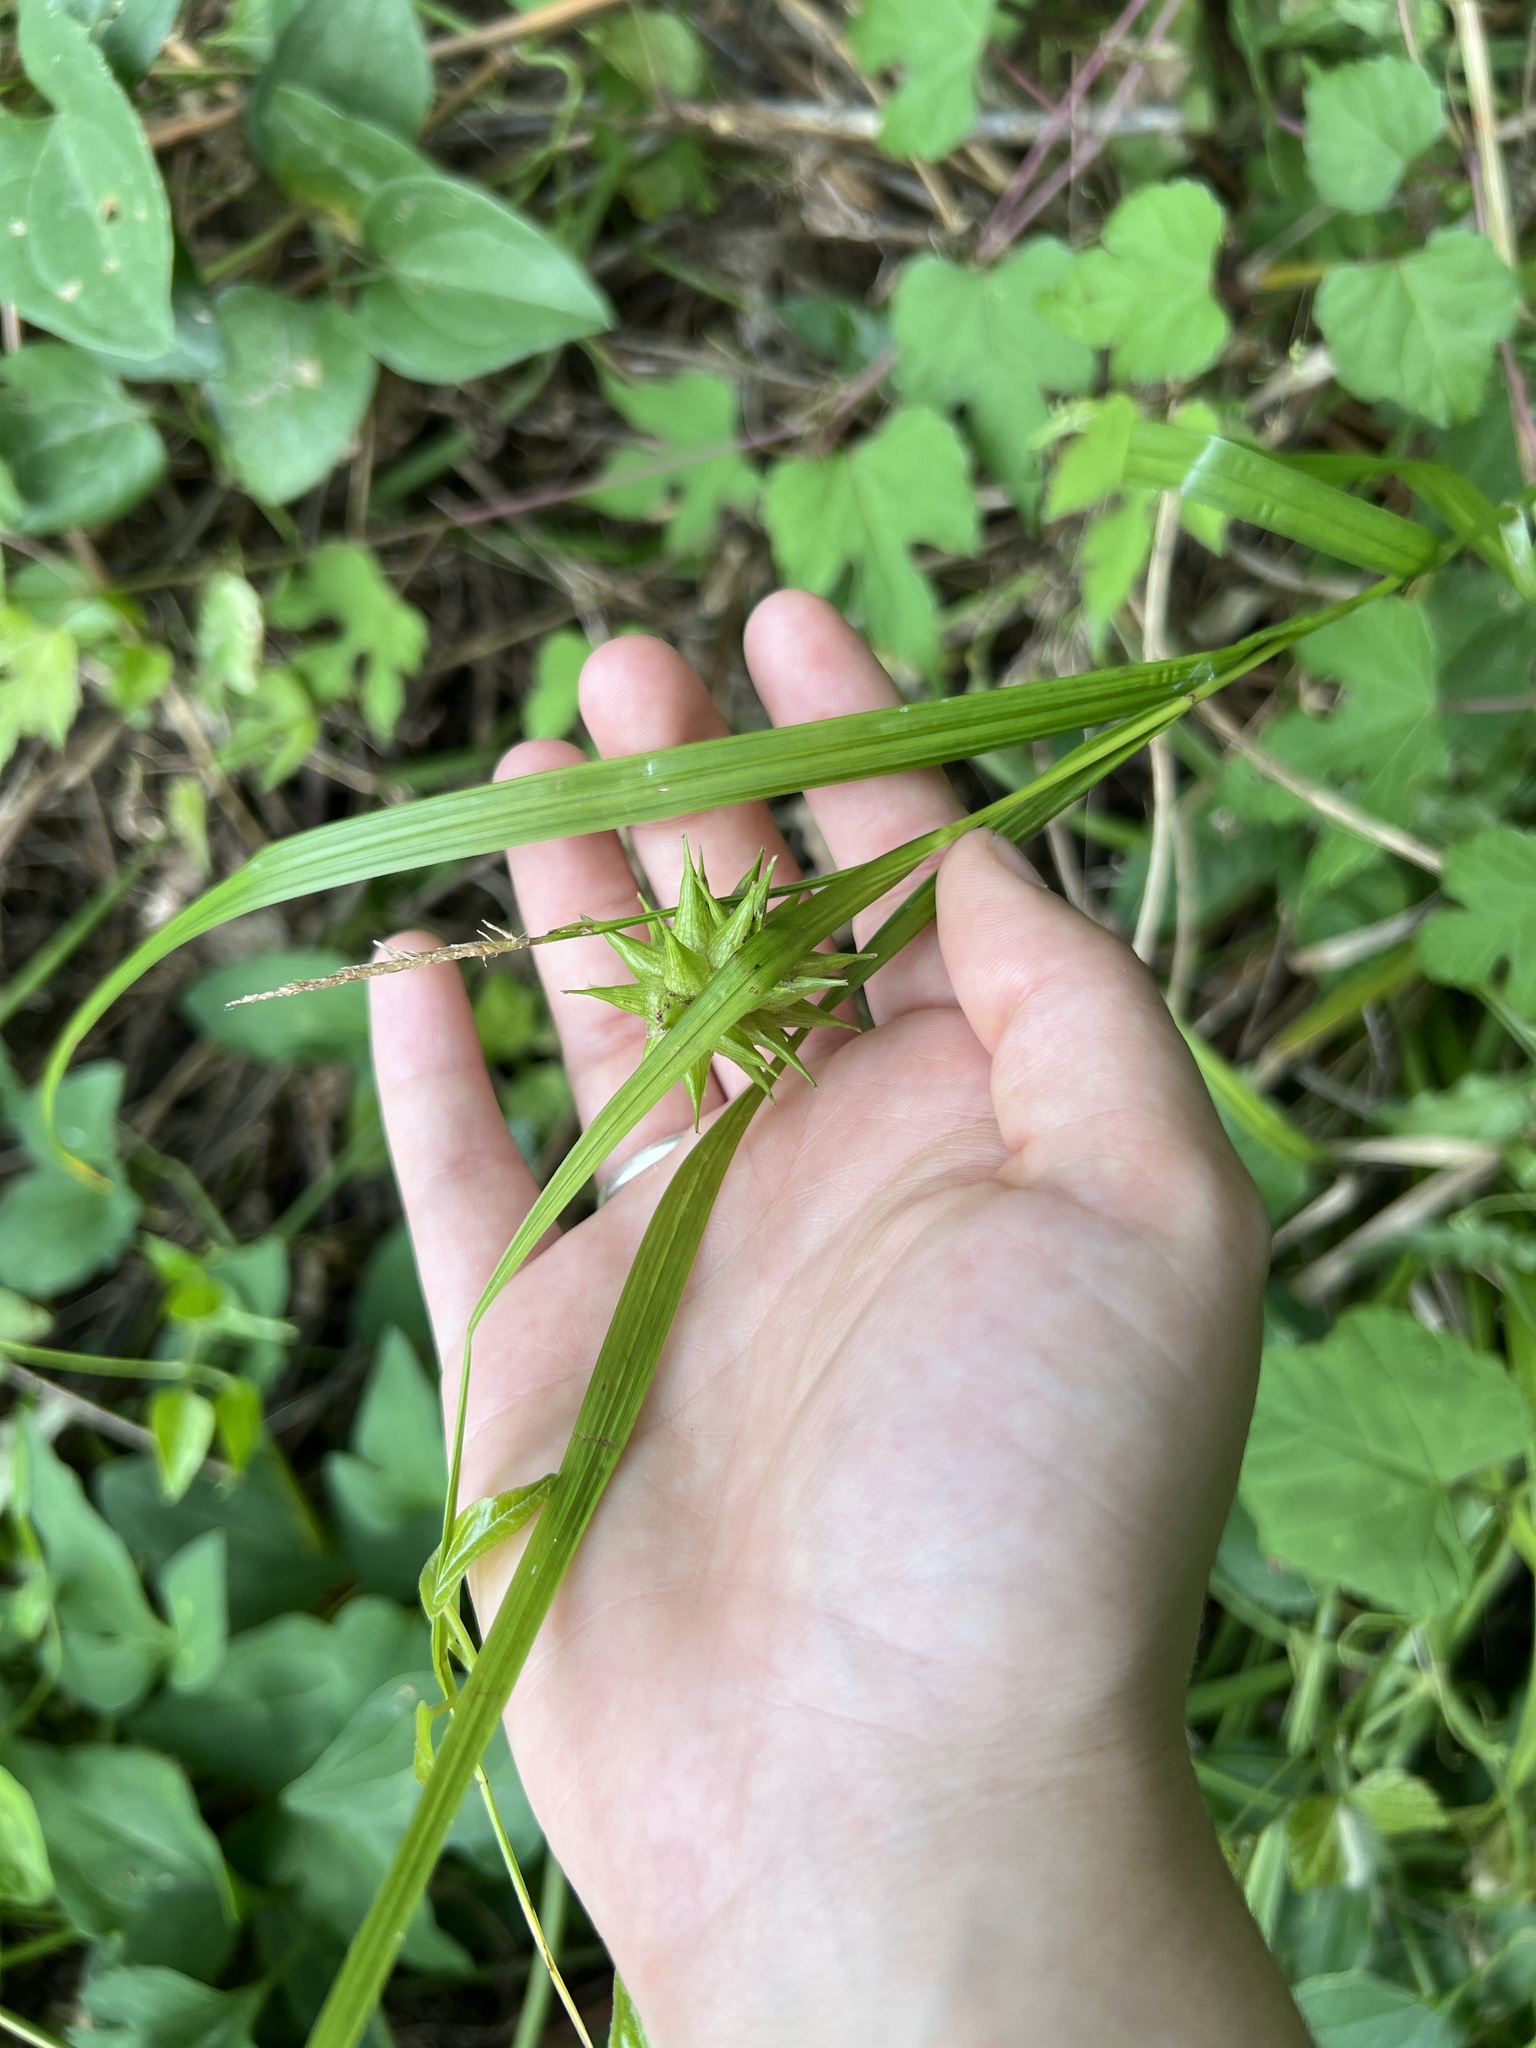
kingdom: Plantae
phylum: Tracheophyta
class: Liliopsida
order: Poales
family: Cyperaceae
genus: Carex
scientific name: Carex grayi
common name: Asa gray's sedge
